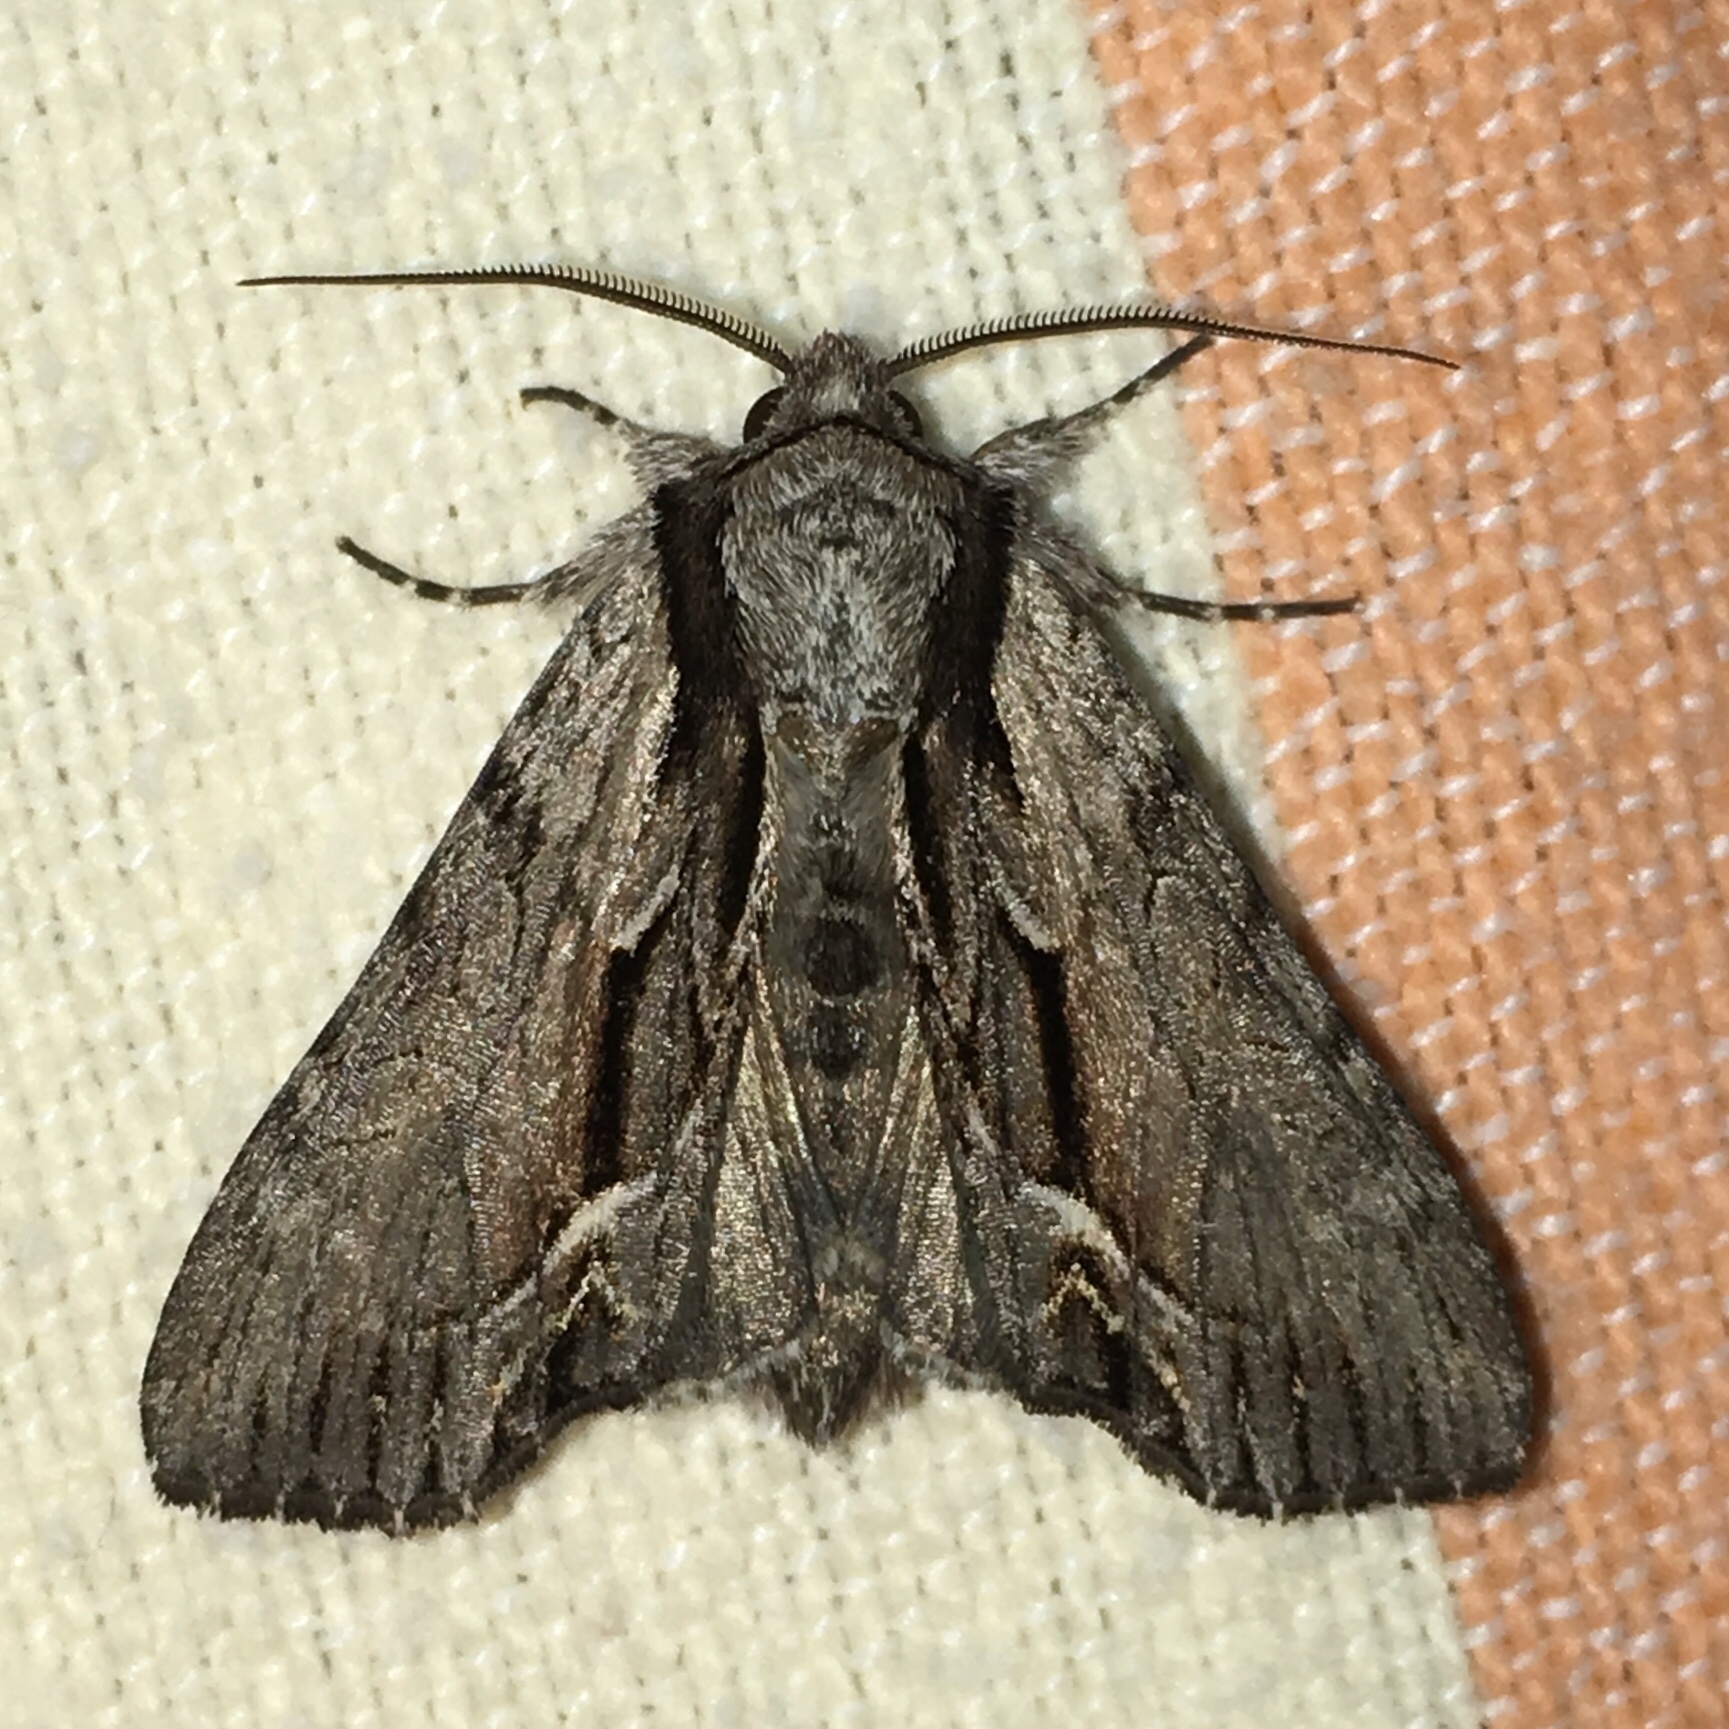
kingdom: Animalia
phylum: Arthropoda
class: Insecta
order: Lepidoptera
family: Noctuidae
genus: Hyppa
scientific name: Hyppa xylinoides
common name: Common hyppa moth
